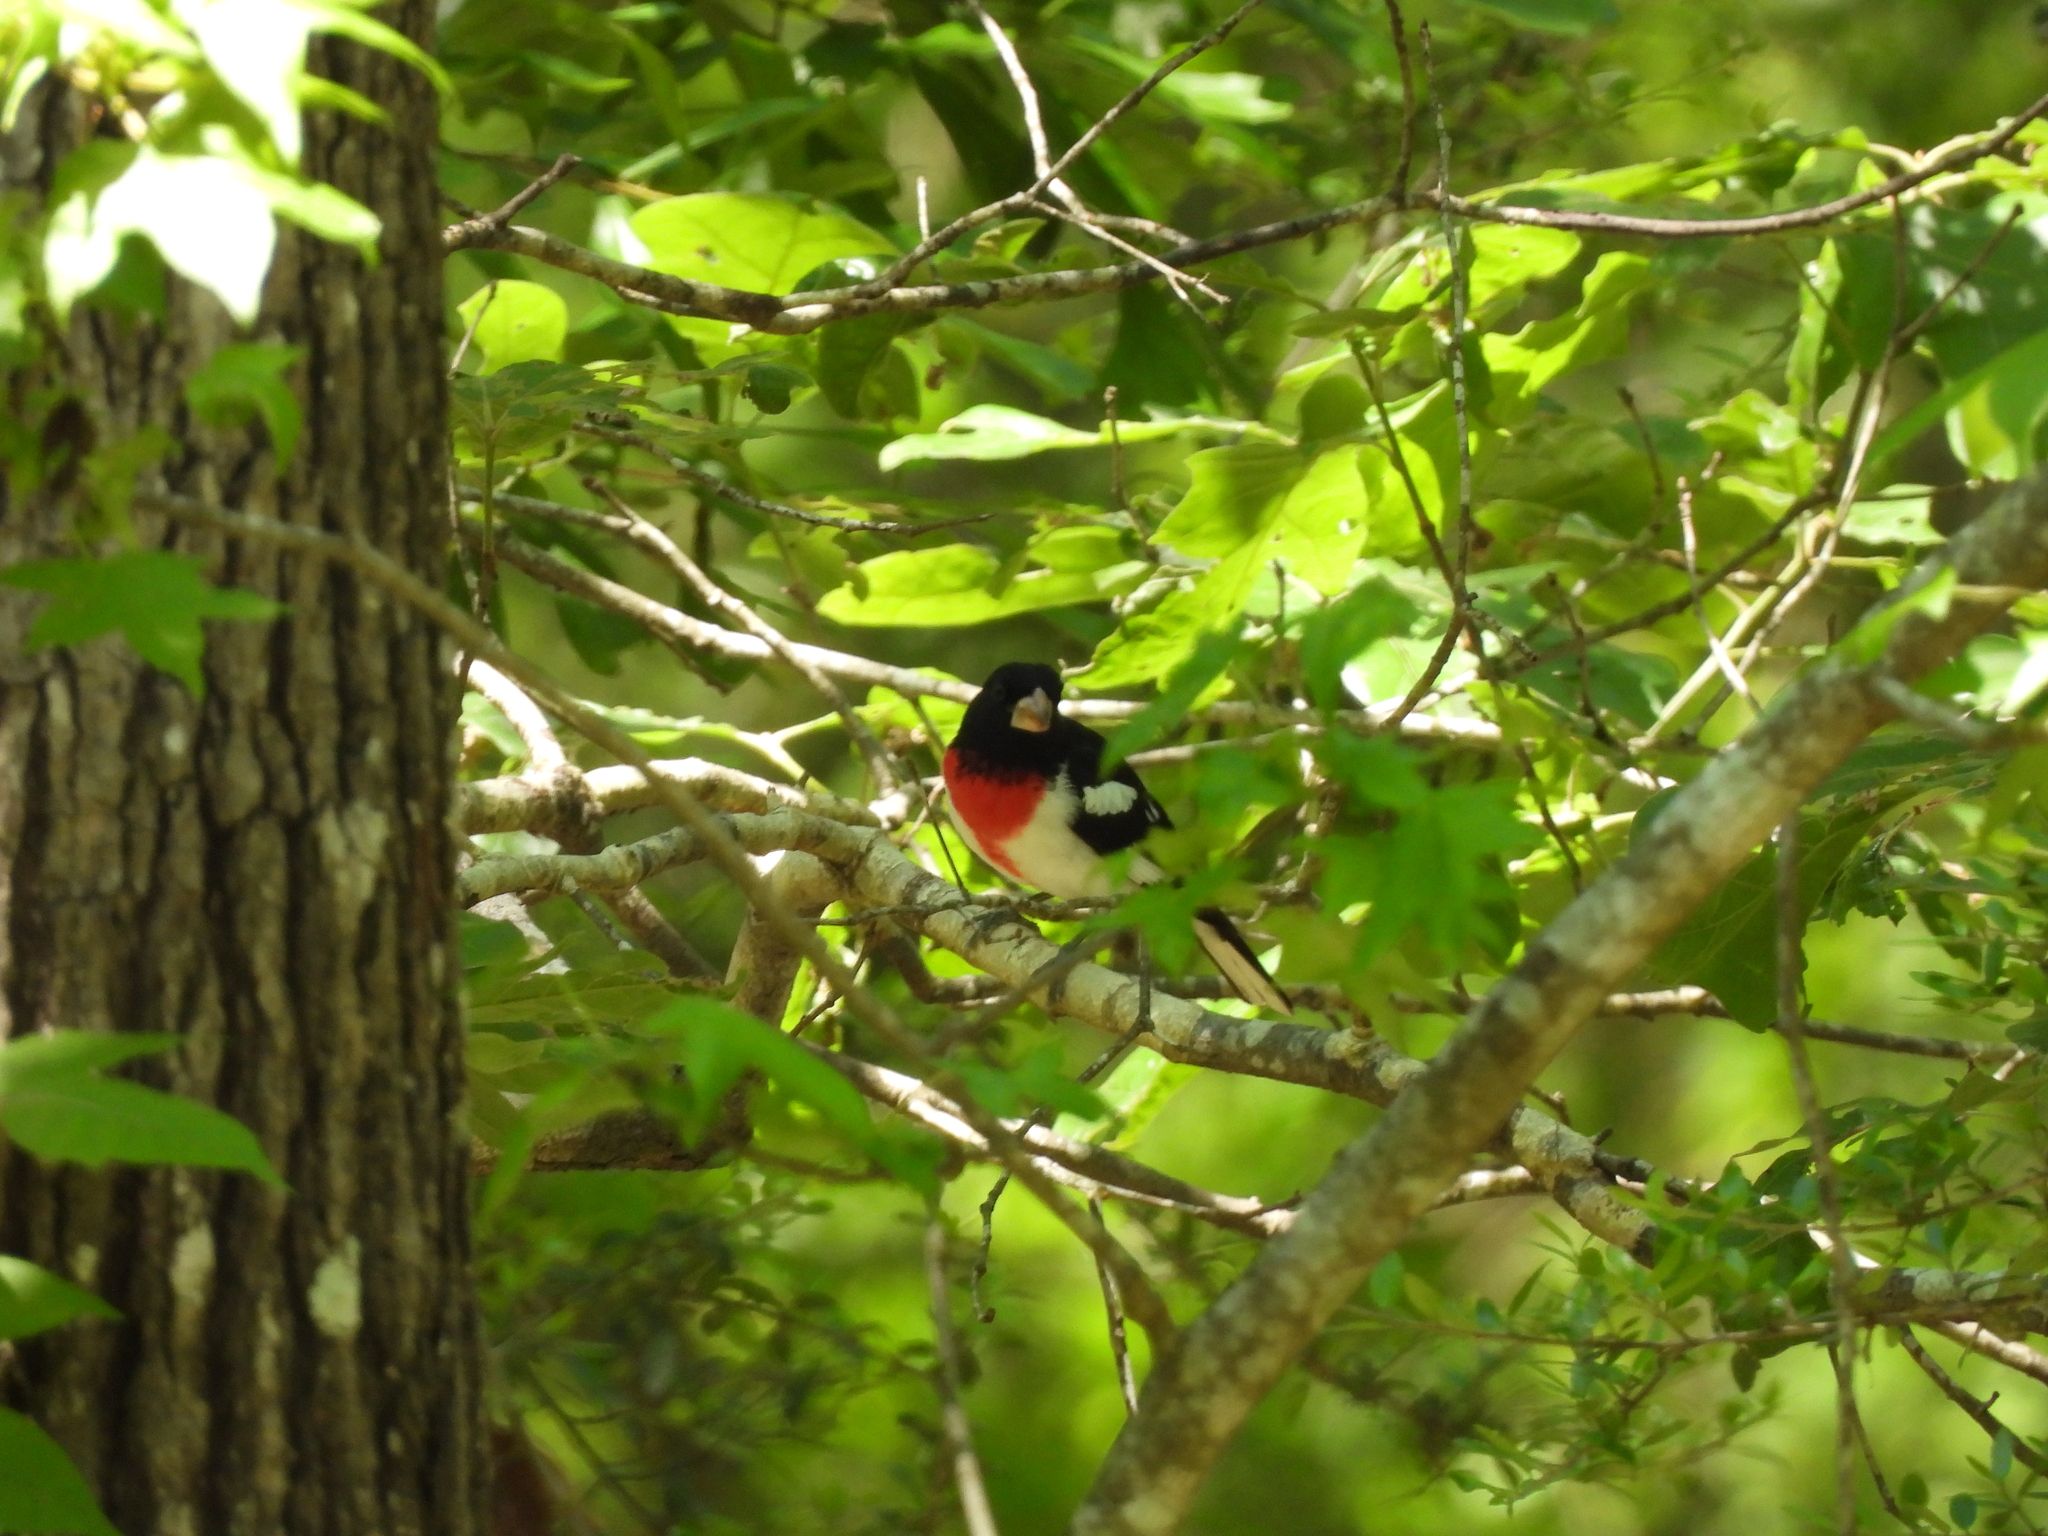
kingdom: Animalia
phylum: Chordata
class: Aves
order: Passeriformes
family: Cardinalidae
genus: Pheucticus
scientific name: Pheucticus ludovicianus
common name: Rose-breasted grosbeak
